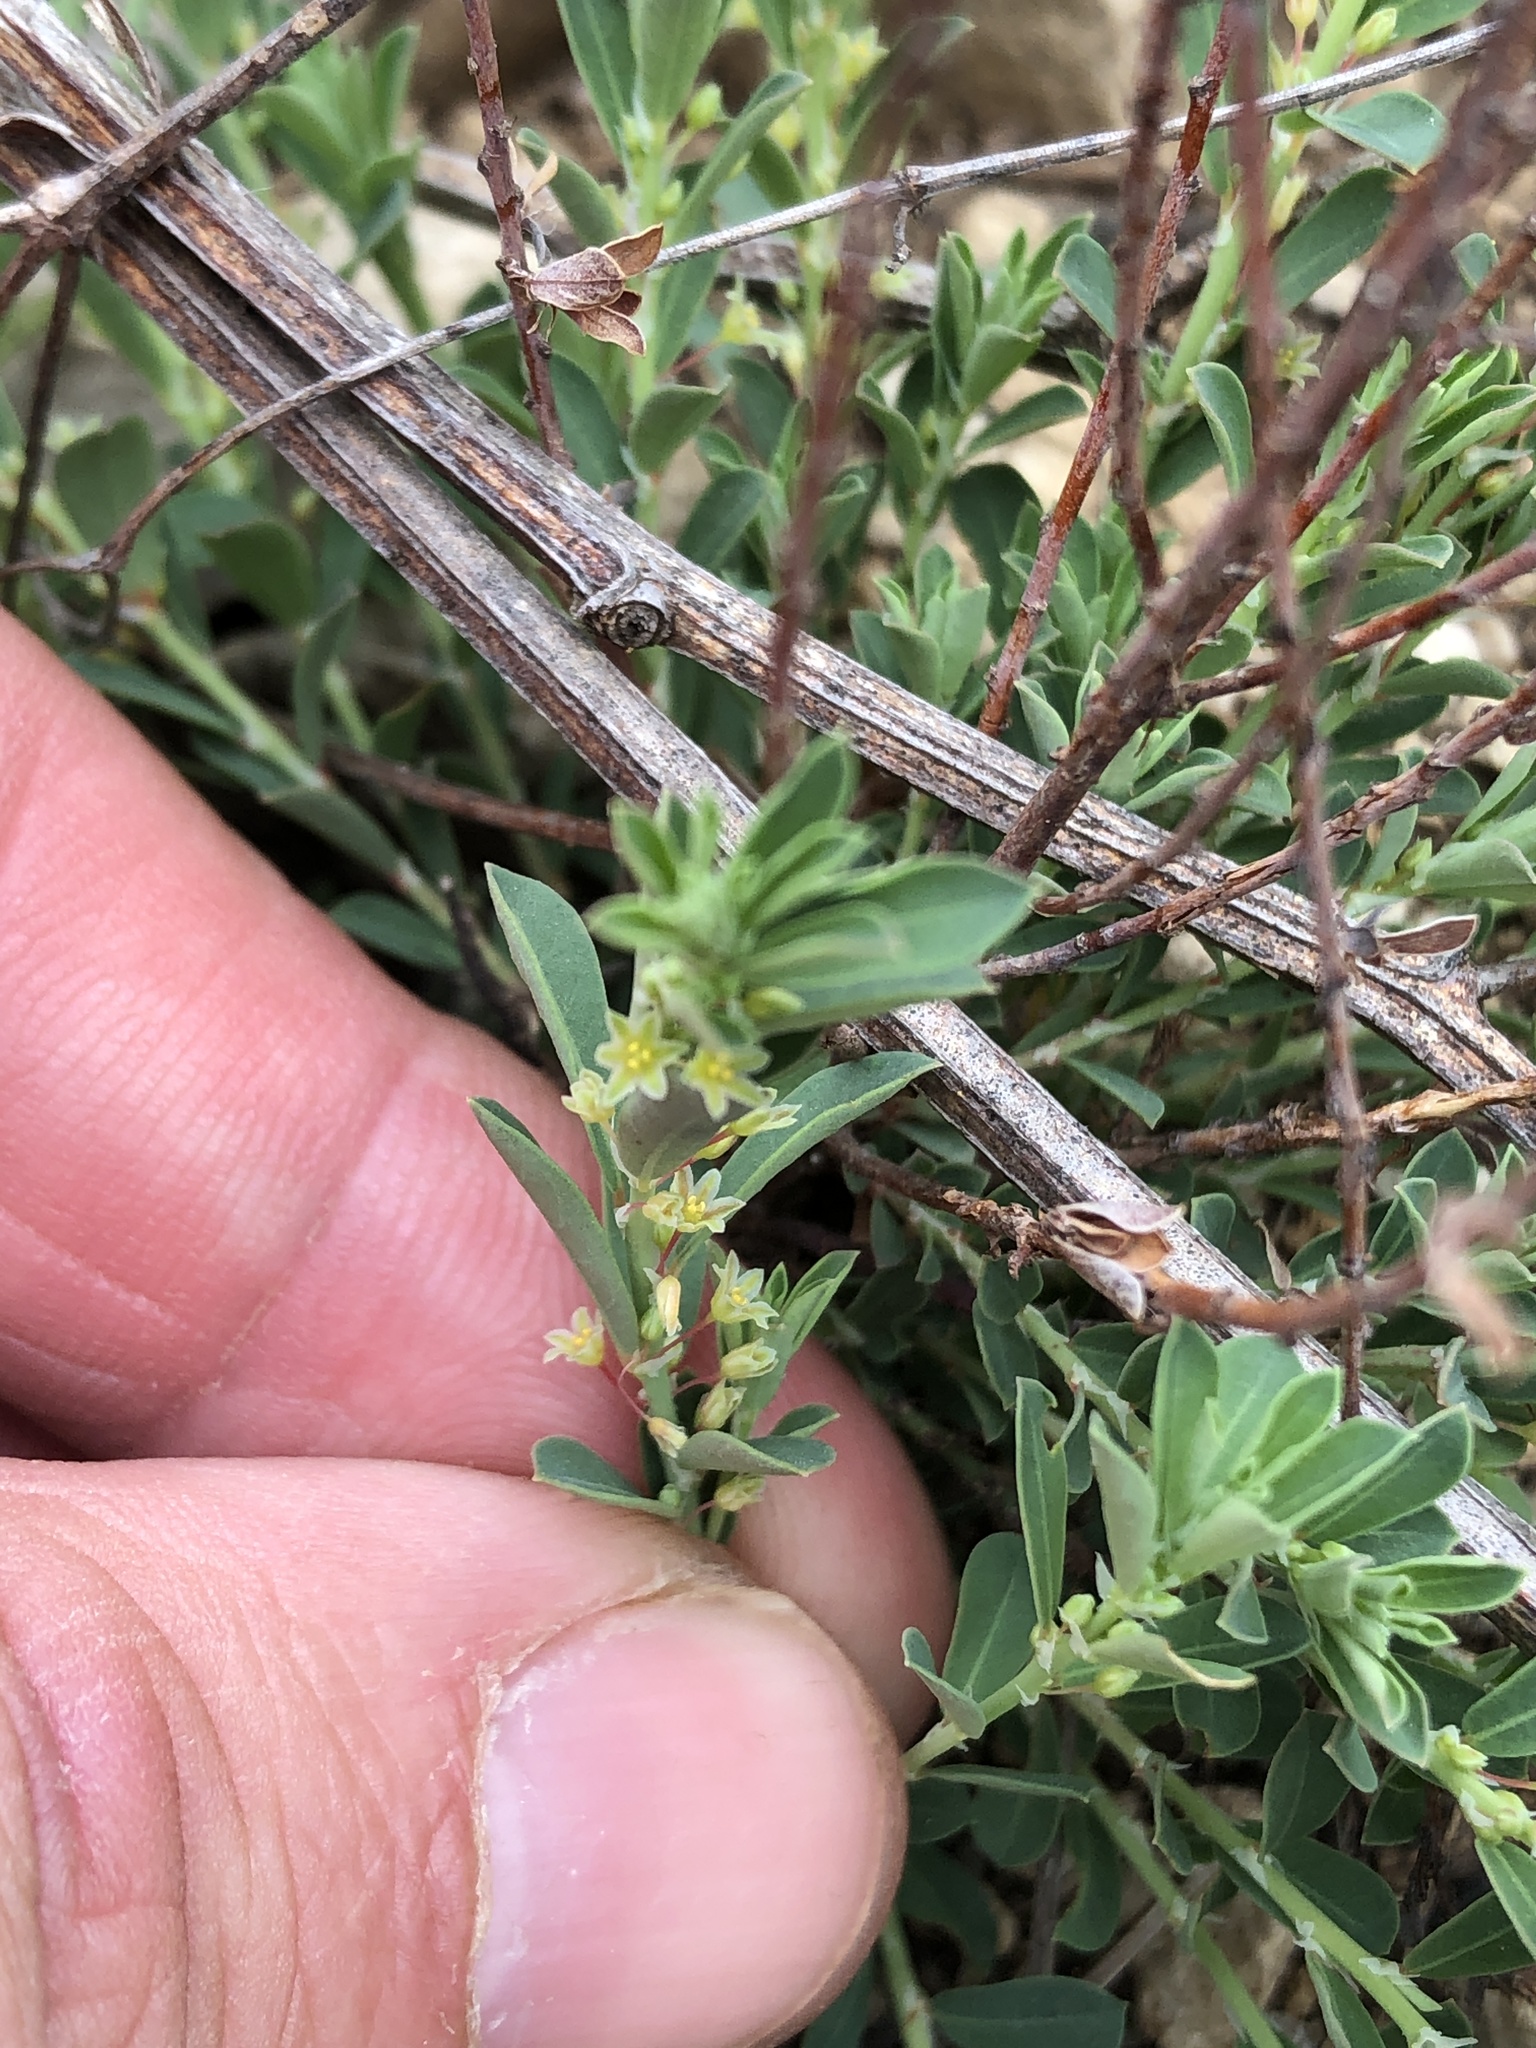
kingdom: Plantae
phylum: Tracheophyta
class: Magnoliopsida
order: Malpighiales
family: Phyllanthaceae
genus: Phyllanthus
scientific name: Phyllanthus polygonoides
